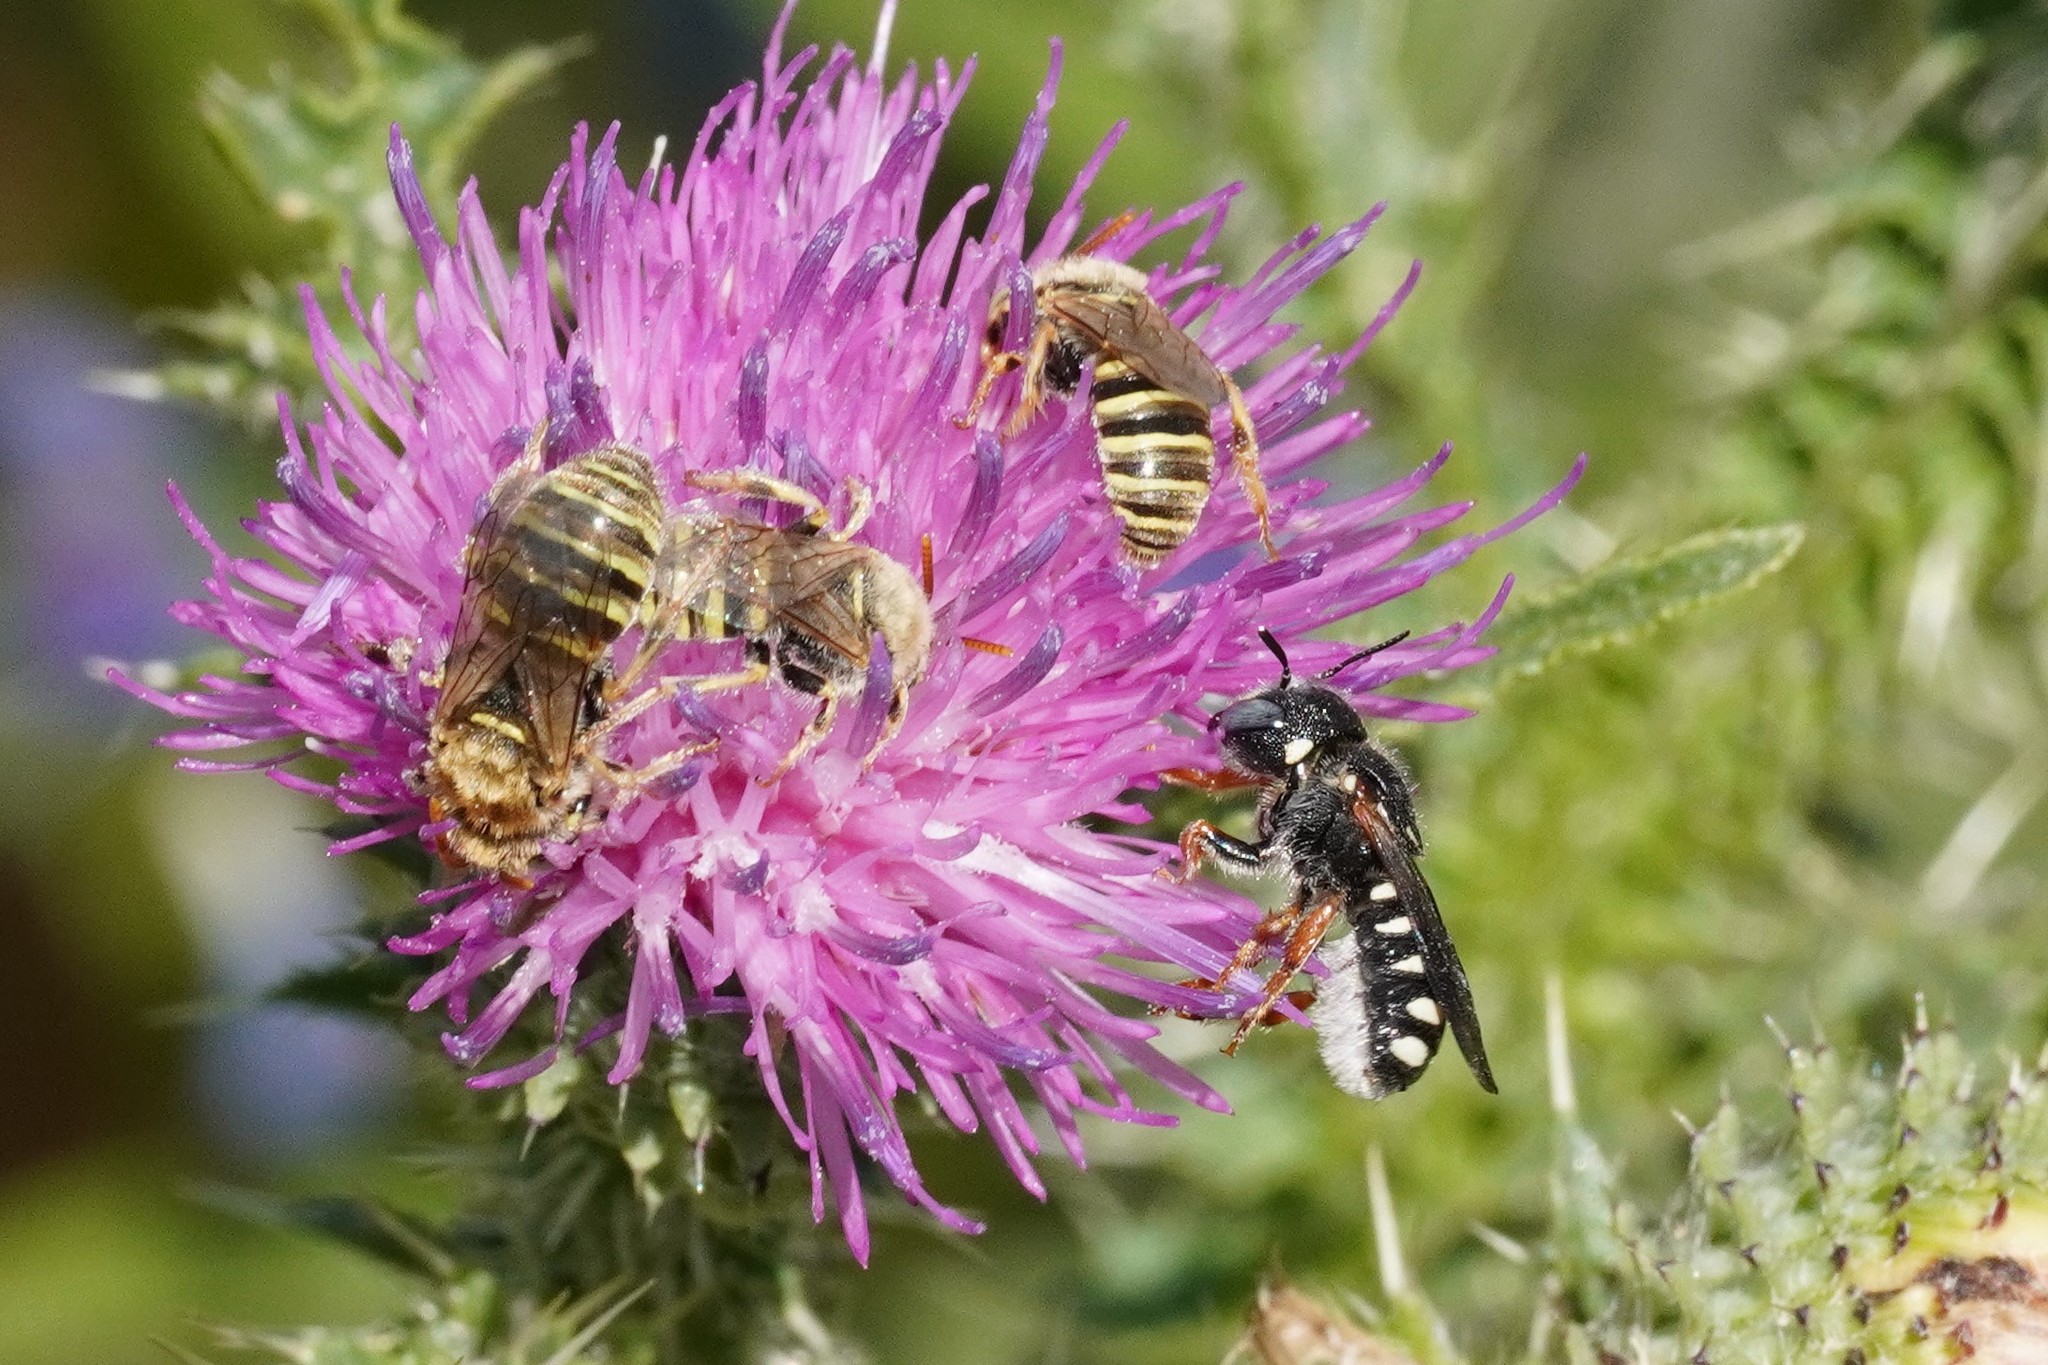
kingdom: Animalia
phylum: Arthropoda
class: Insecta
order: Hymenoptera
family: Megachilidae
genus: Pseudoanthidium
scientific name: Pseudoanthidium tenellum
